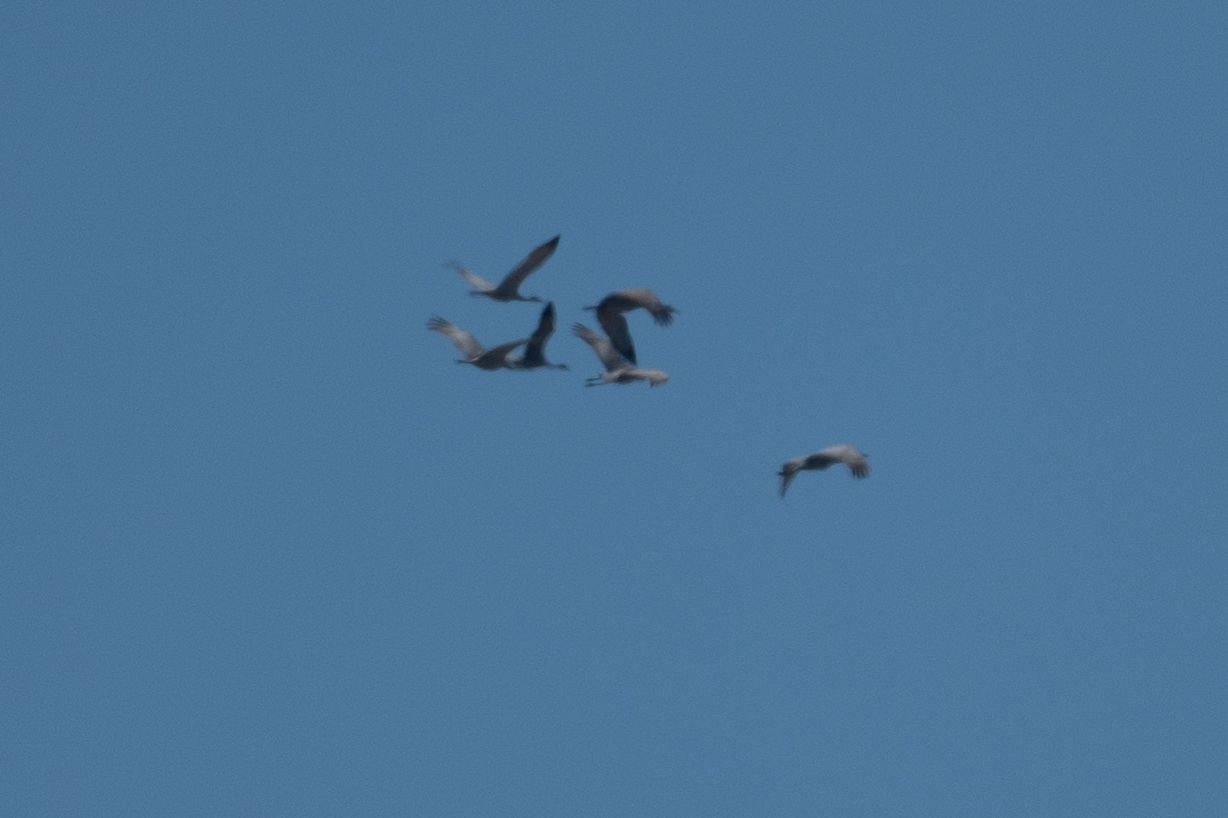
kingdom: Animalia
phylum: Chordata
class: Aves
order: Gruiformes
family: Gruidae
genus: Grus
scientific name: Grus canadensis
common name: Sandhill crane
